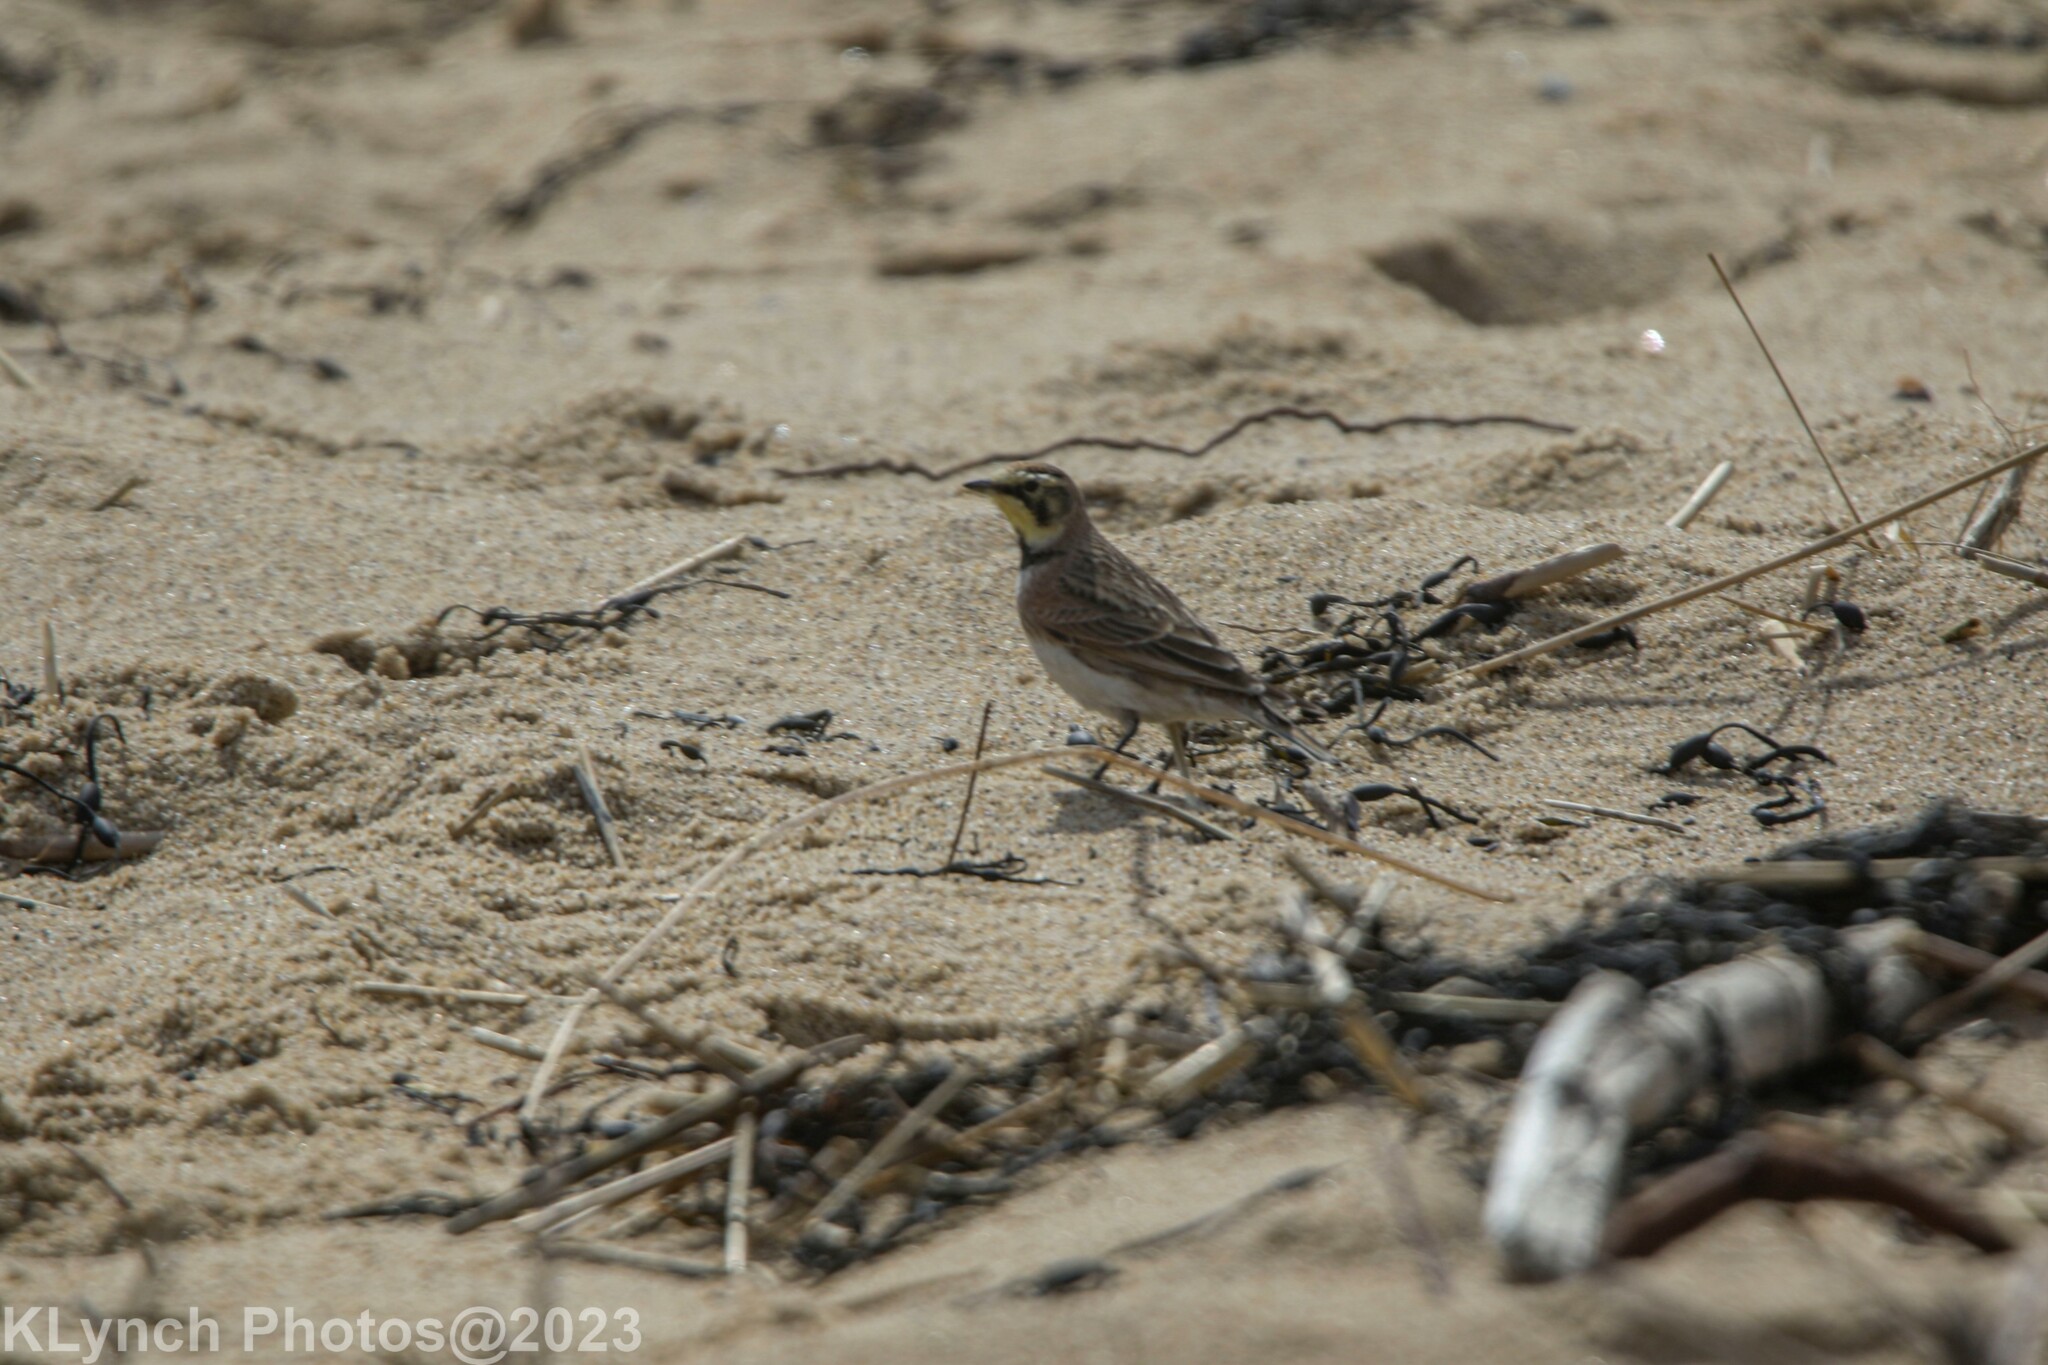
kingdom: Animalia
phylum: Chordata
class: Aves
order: Passeriformes
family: Alaudidae
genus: Eremophila
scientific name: Eremophila alpestris
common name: Horned lark
